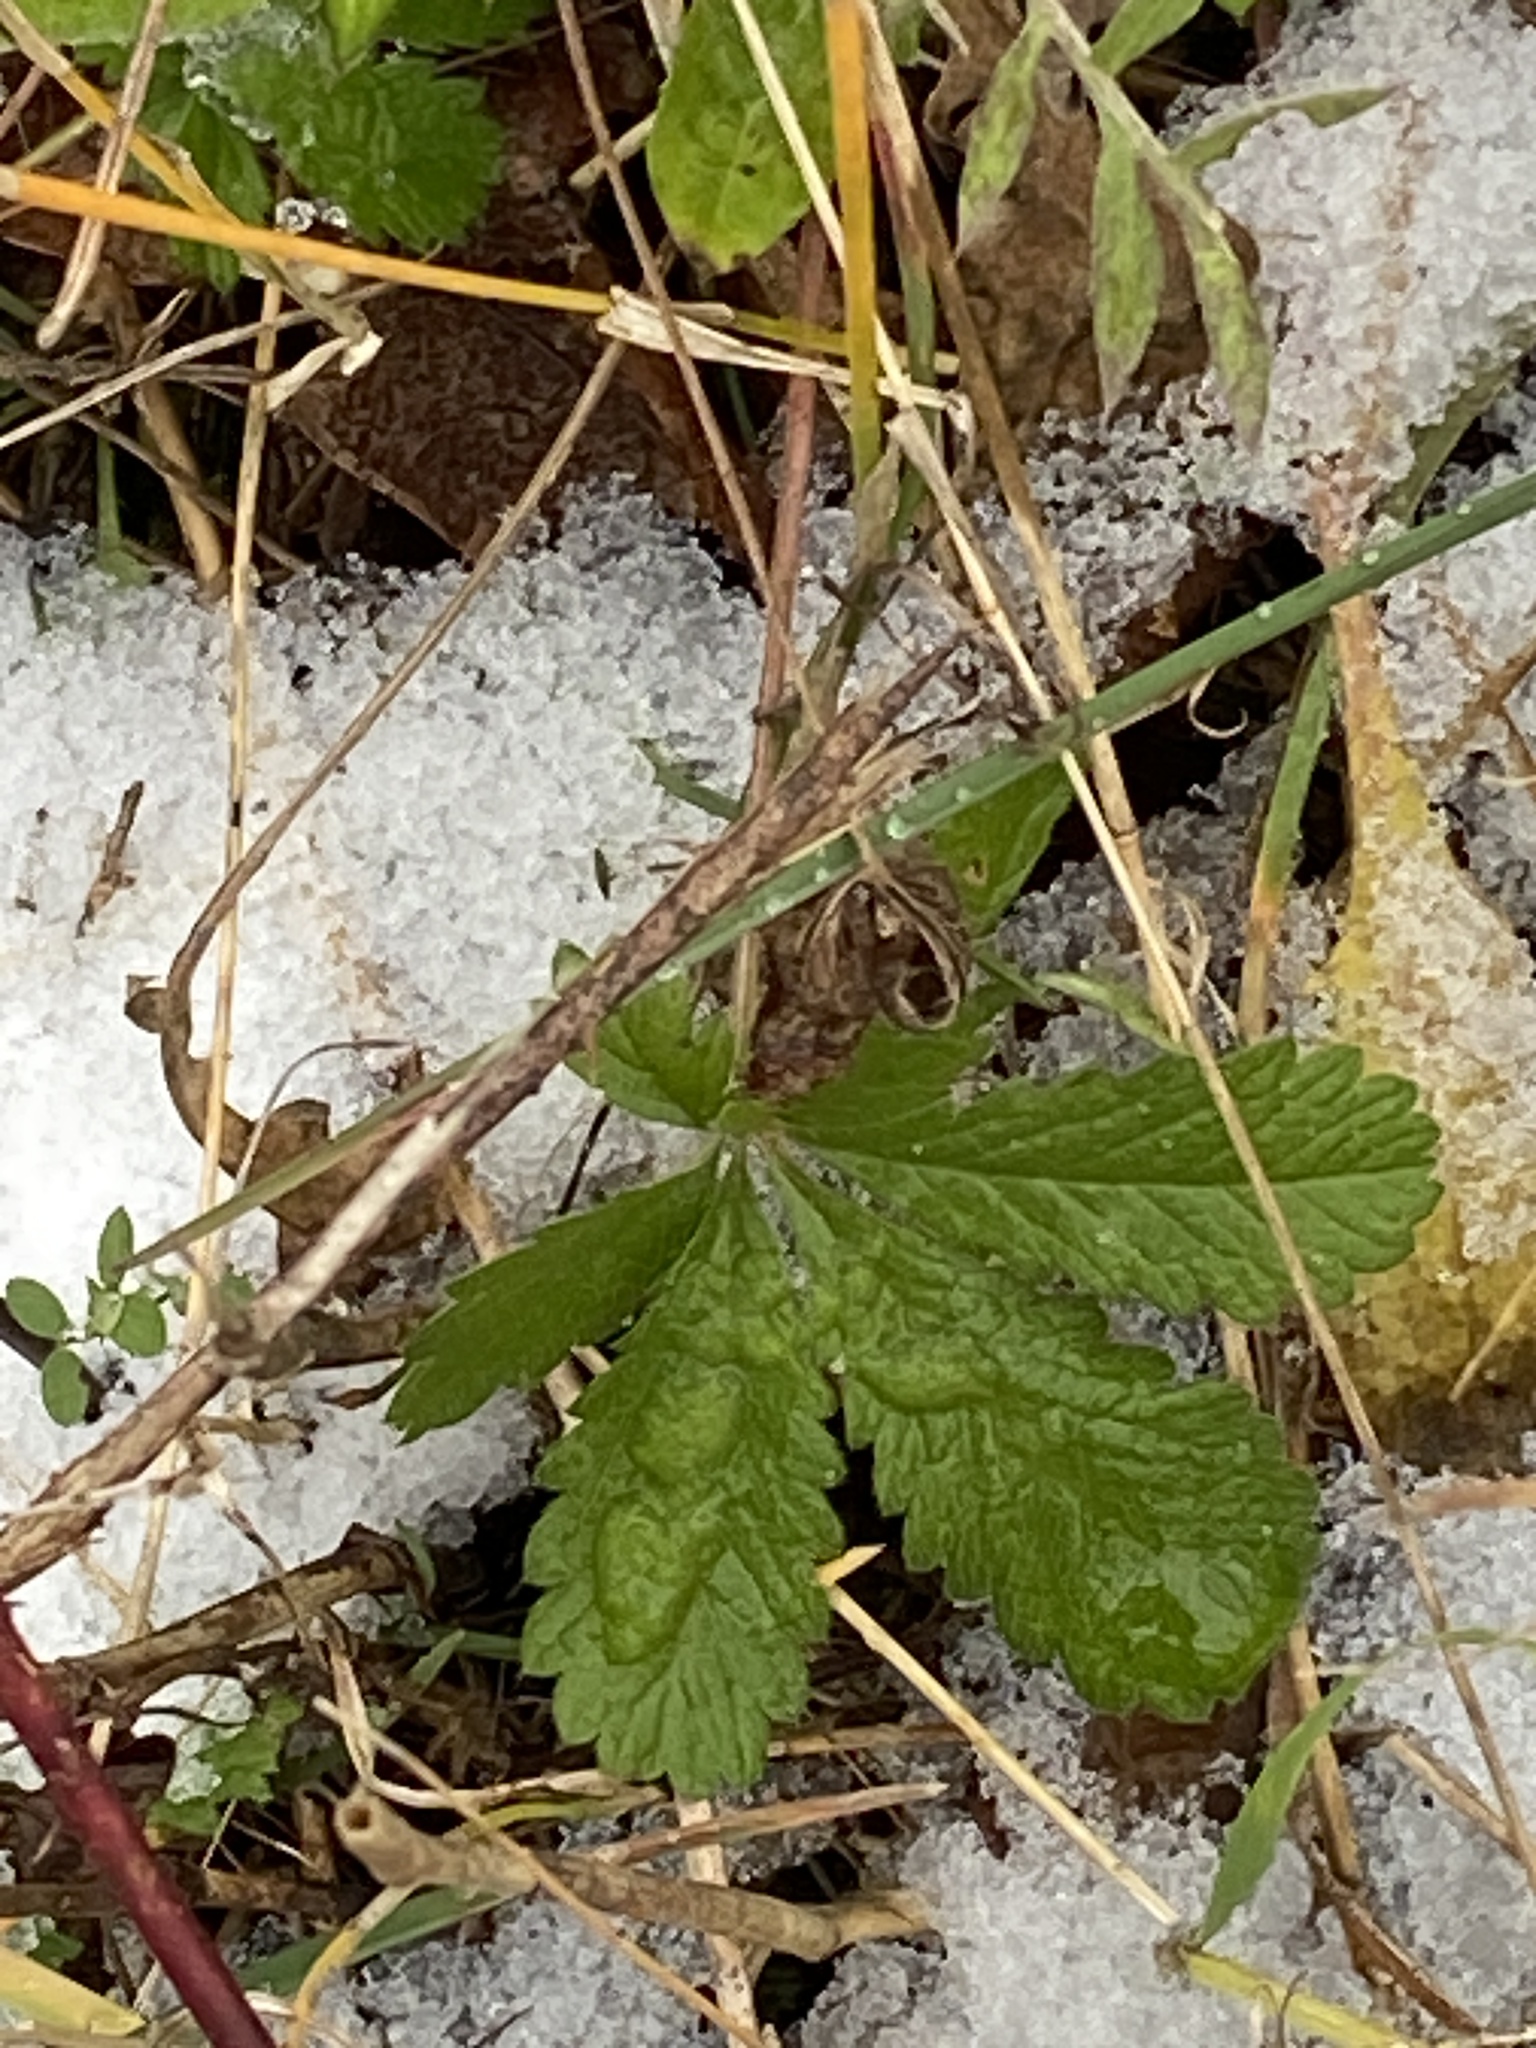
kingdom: Plantae
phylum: Tracheophyta
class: Magnoliopsida
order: Rosales
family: Rosaceae
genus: Potentilla
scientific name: Potentilla recta
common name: Sulphur cinquefoil
